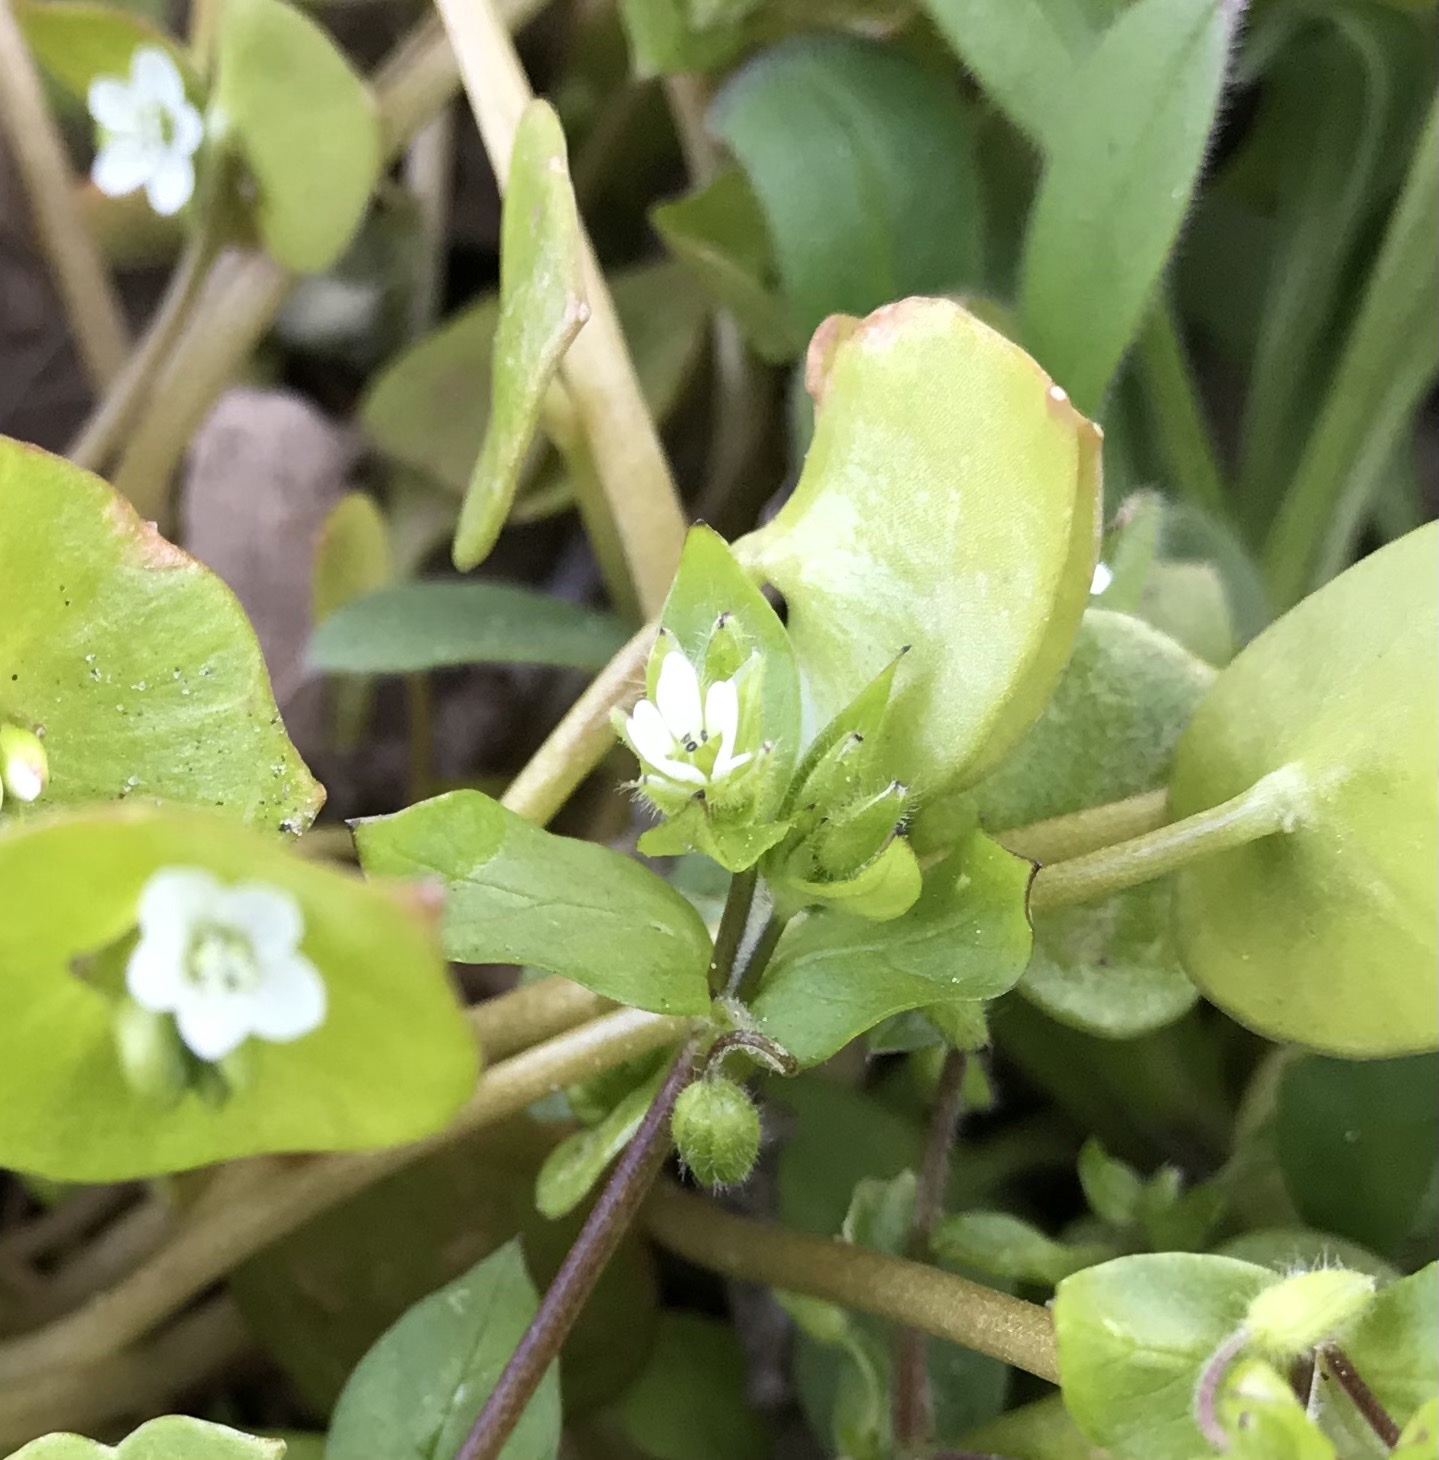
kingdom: Plantae
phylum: Tracheophyta
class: Magnoliopsida
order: Caryophyllales
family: Montiaceae
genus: Claytonia
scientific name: Claytonia perfoliata
